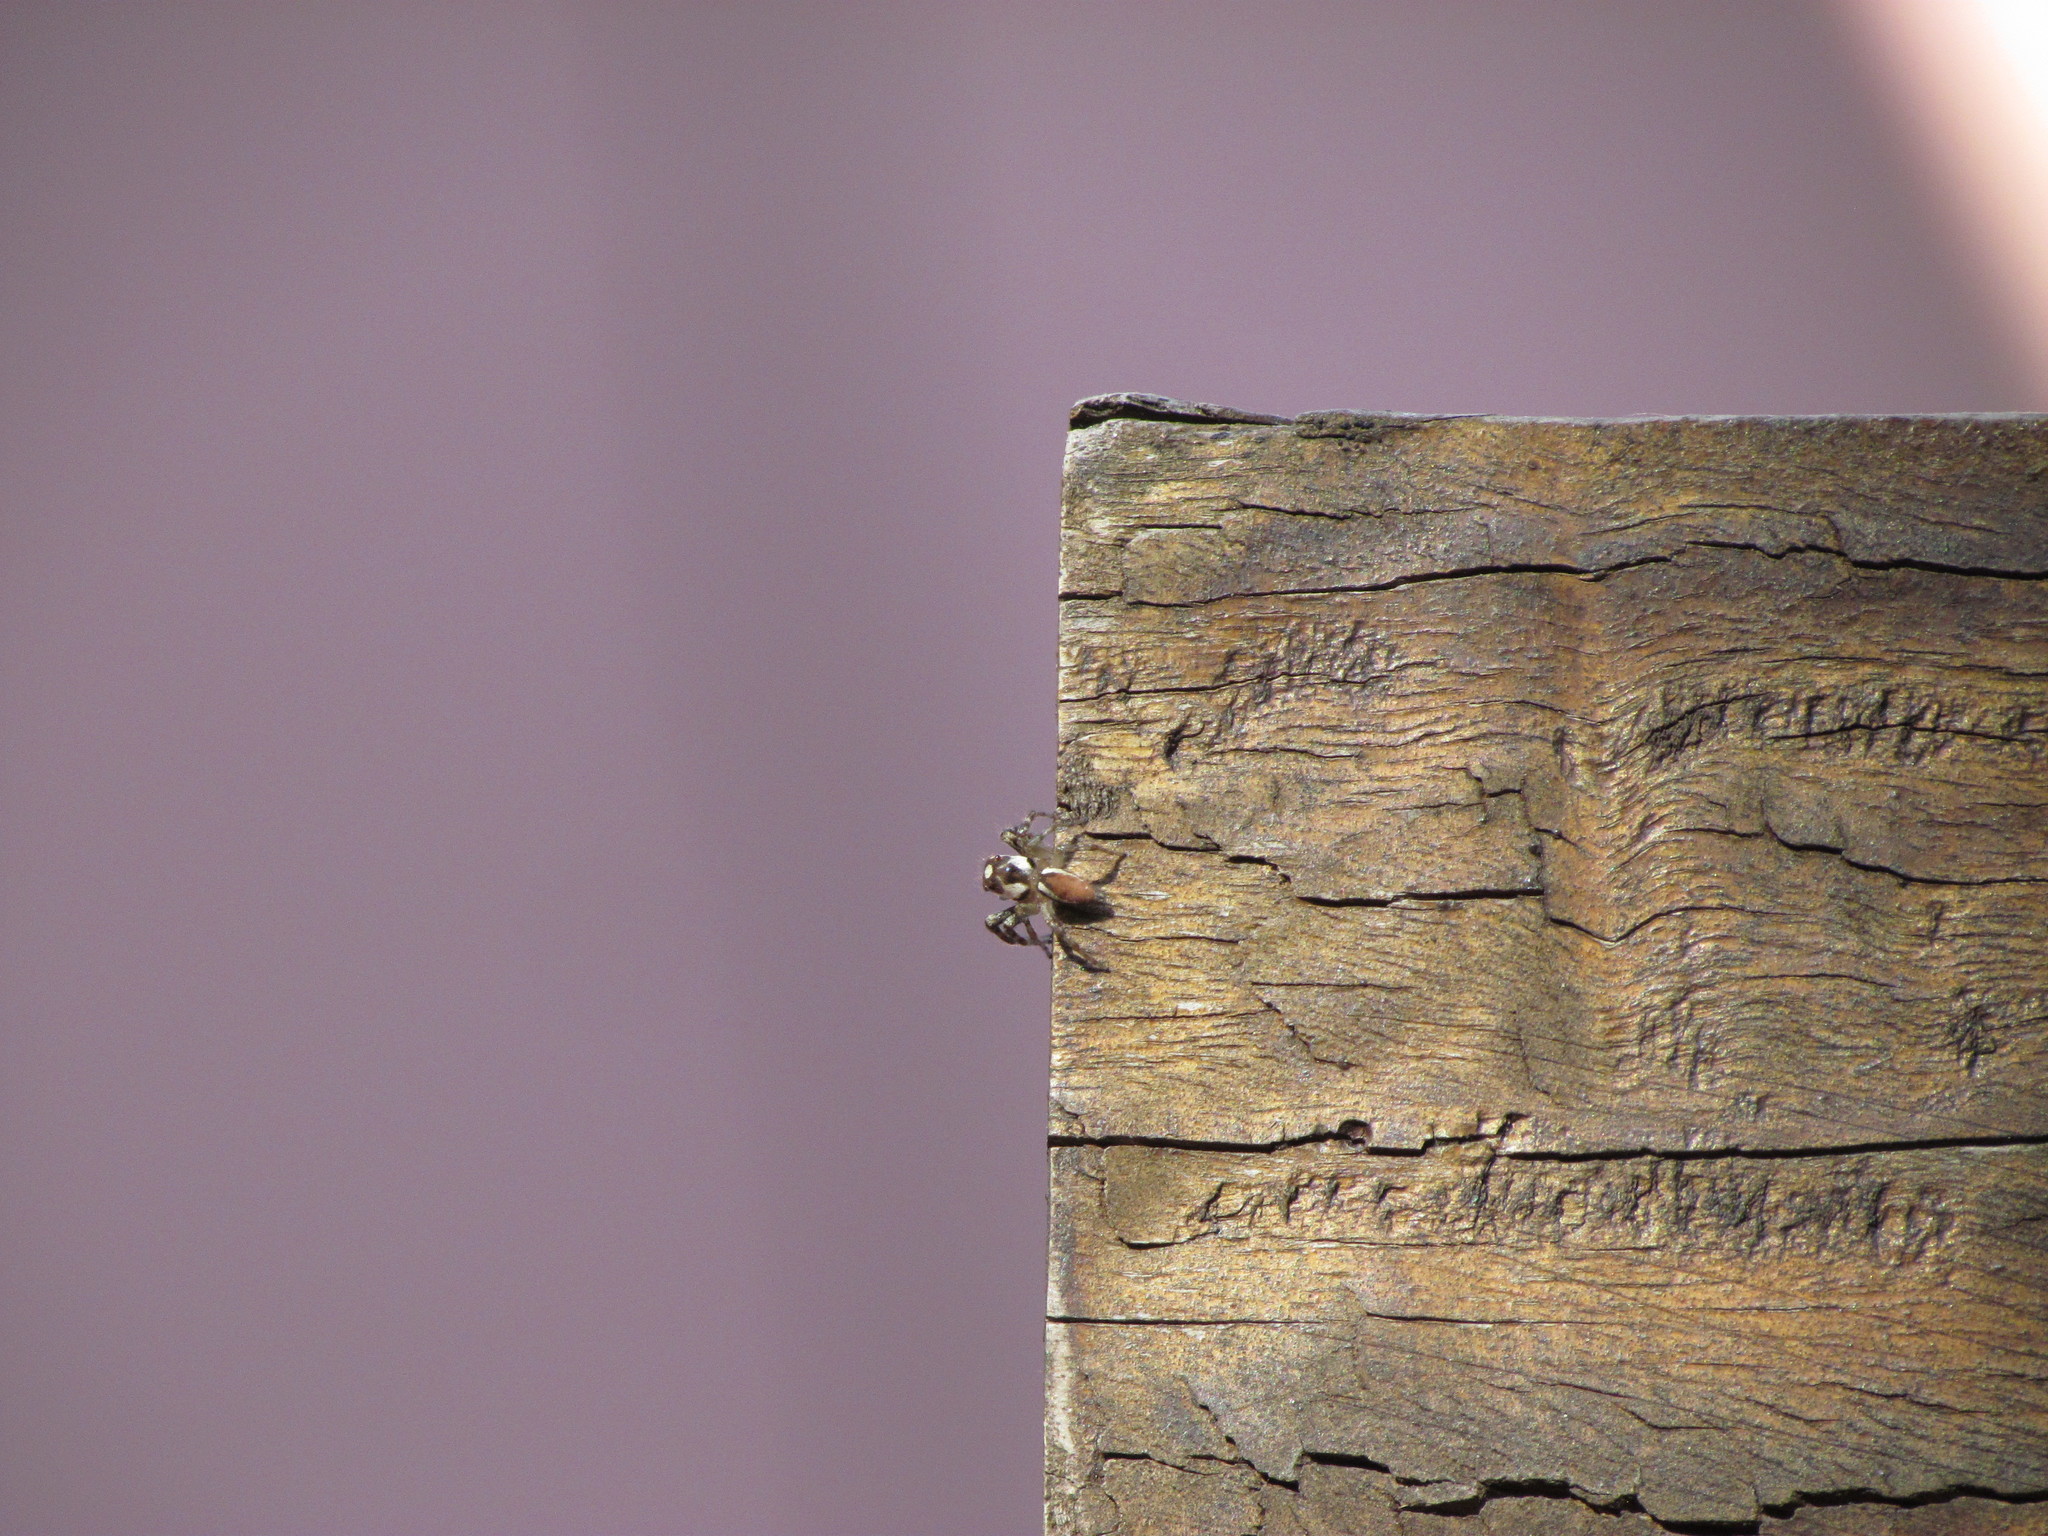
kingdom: Animalia
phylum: Arthropoda
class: Arachnida
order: Araneae
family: Salticidae
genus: Chira
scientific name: Chira gounellei
